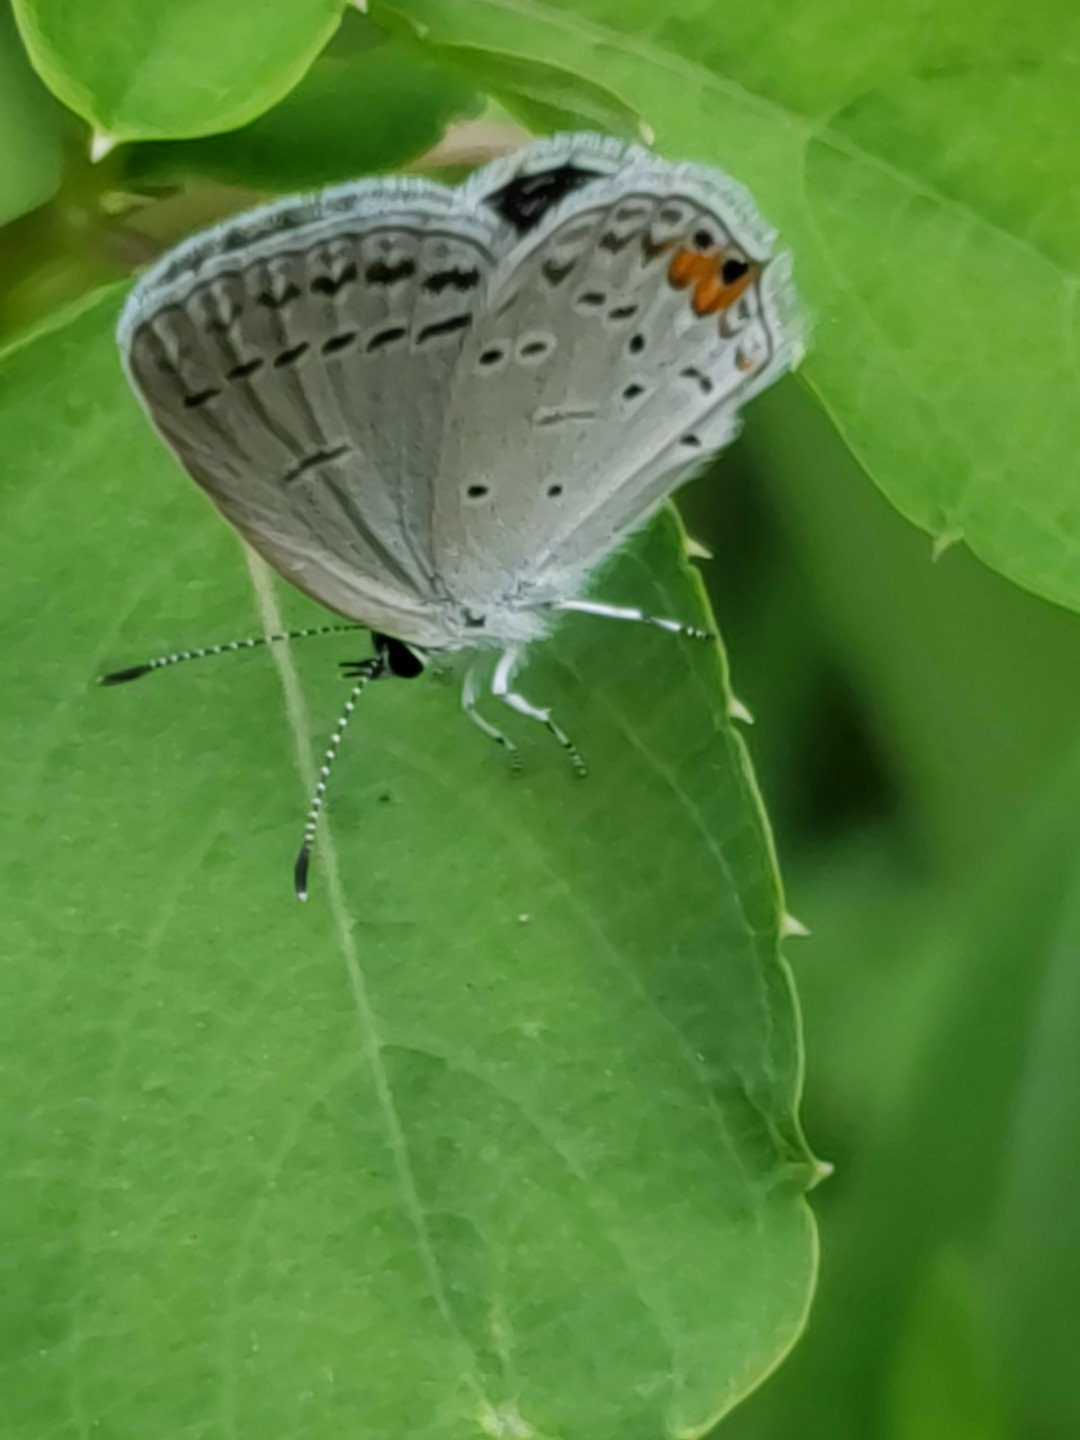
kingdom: Animalia
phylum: Arthropoda
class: Insecta
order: Lepidoptera
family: Lycaenidae
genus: Elkalyce
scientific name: Elkalyce comyntas
